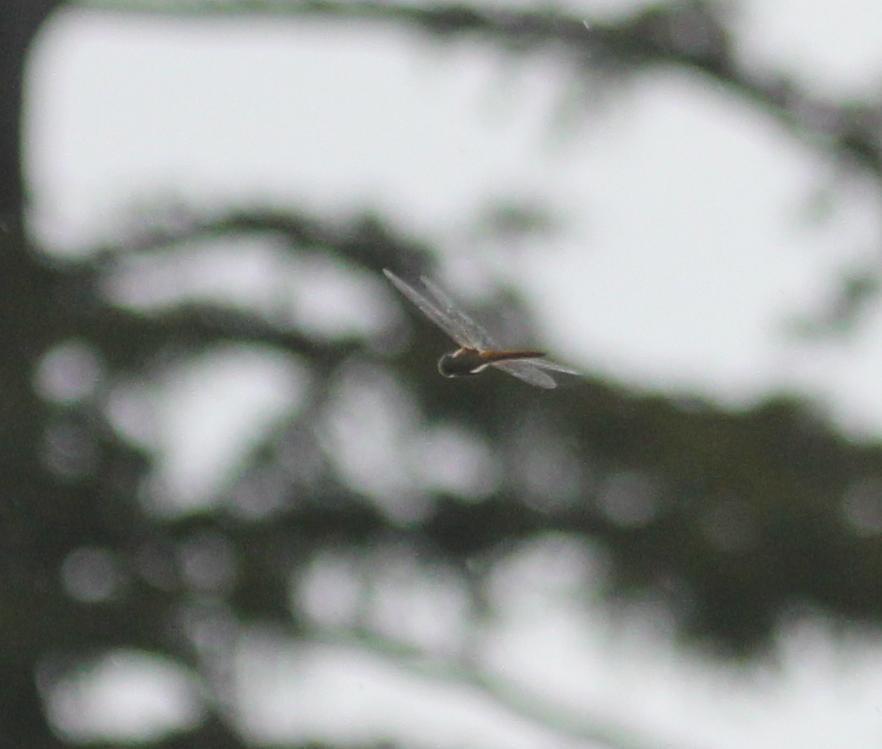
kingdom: Animalia
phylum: Arthropoda
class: Insecta
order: Odonata
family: Libellulidae
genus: Pantala
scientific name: Pantala flavescens
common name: Wandering glider
